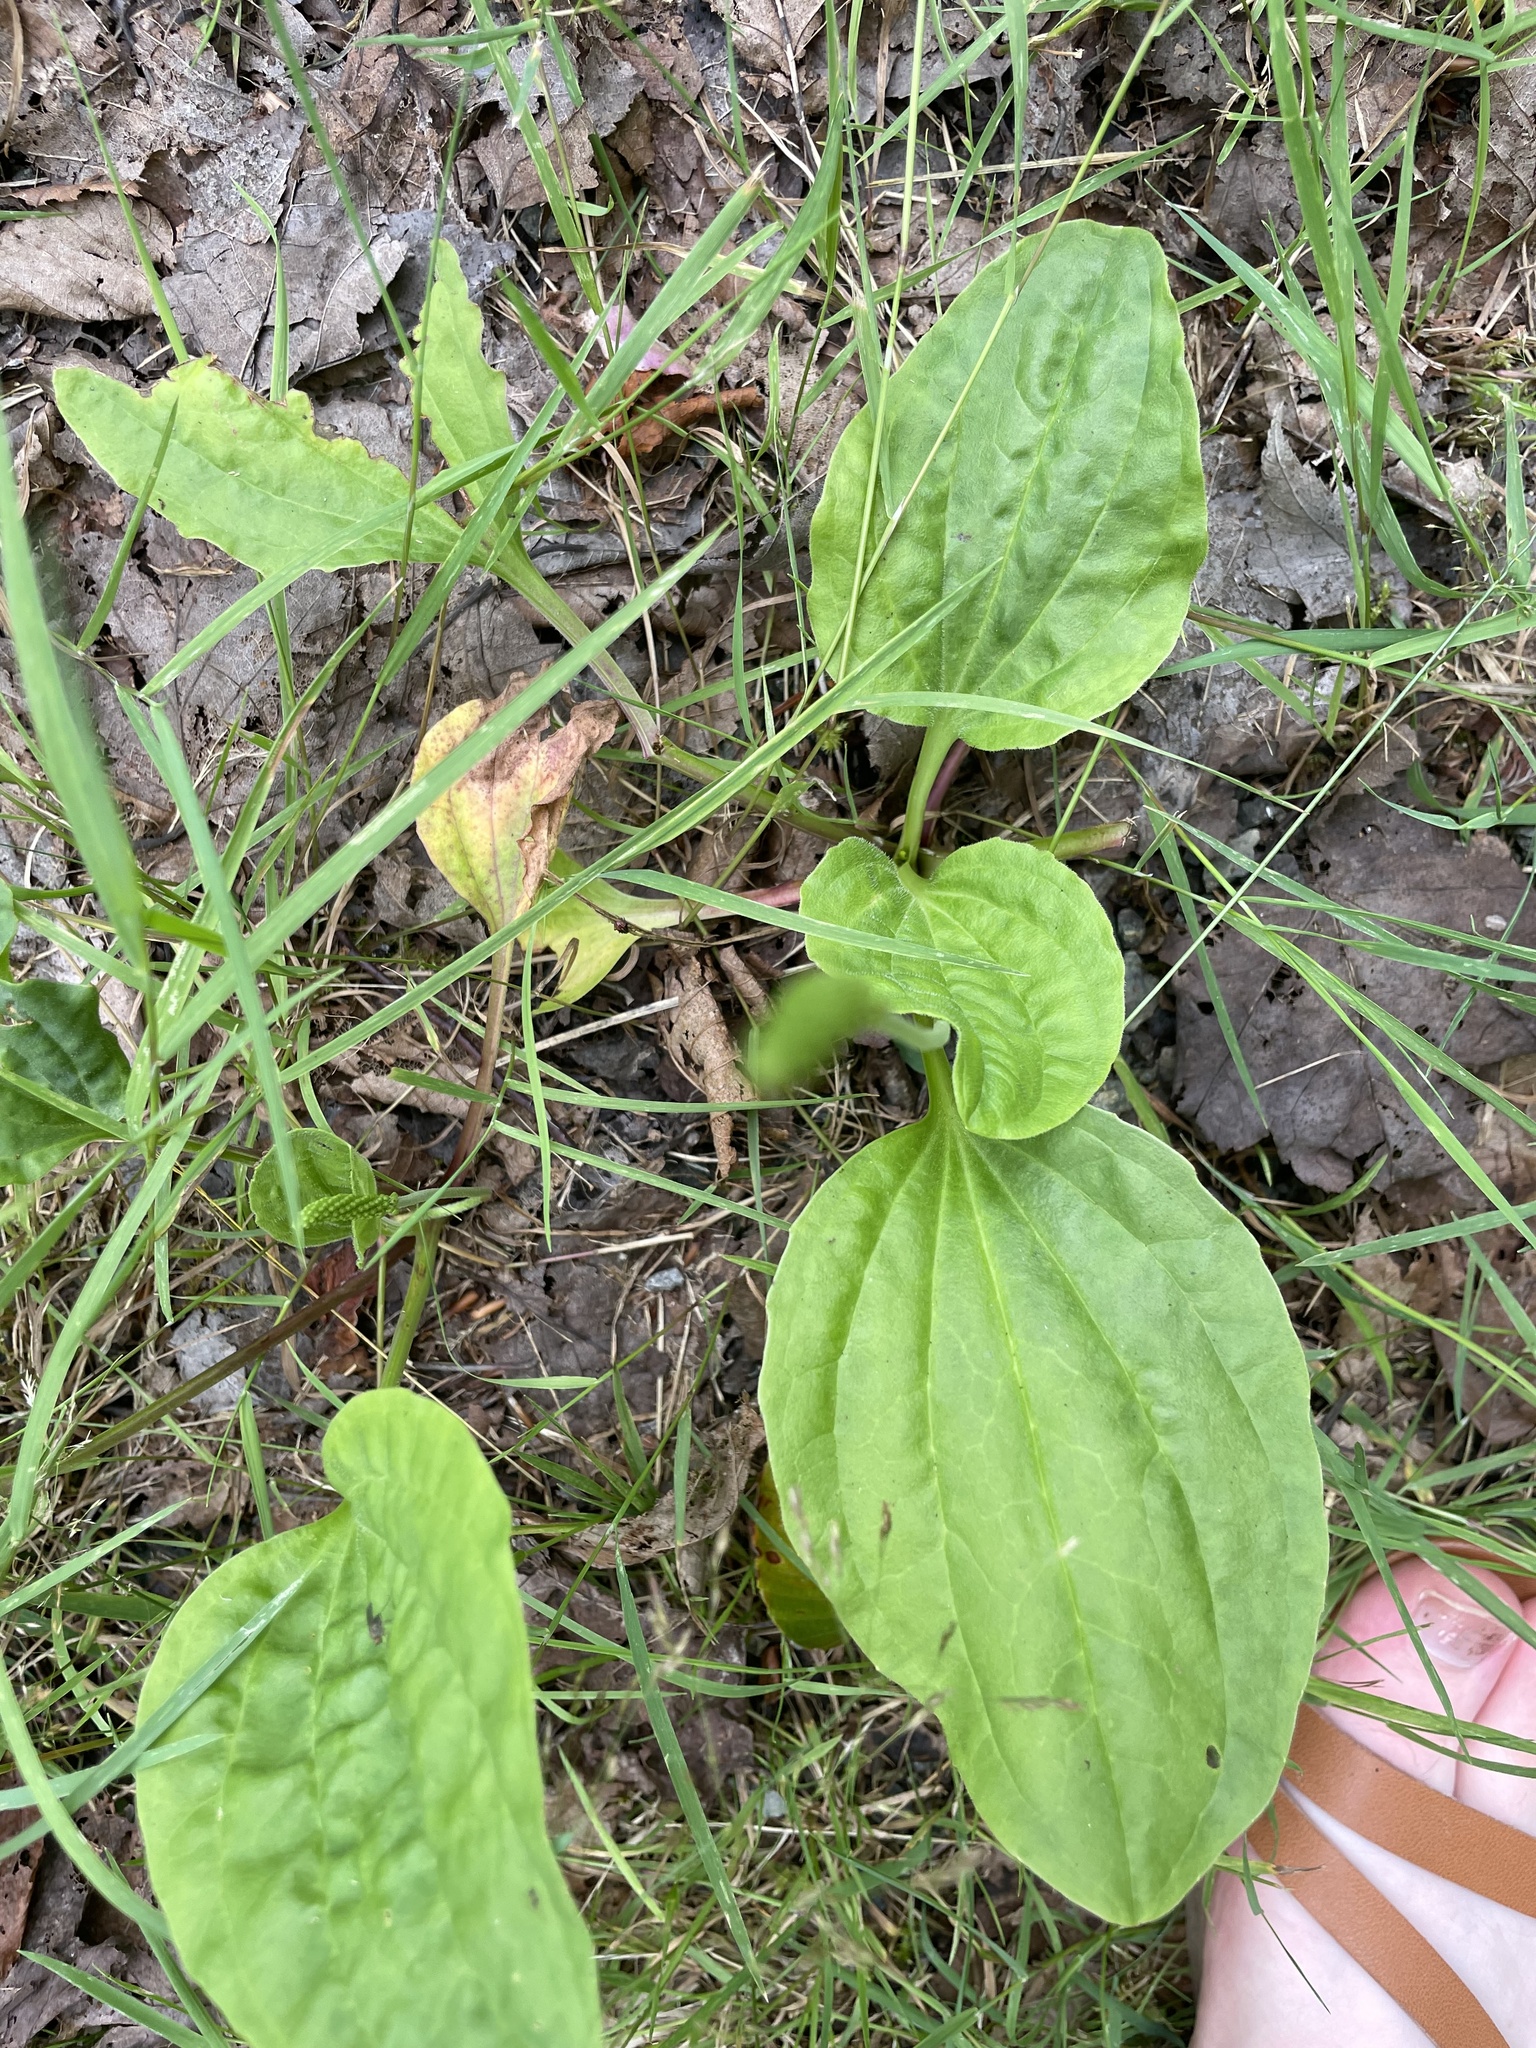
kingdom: Plantae
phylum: Tracheophyta
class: Magnoliopsida
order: Lamiales
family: Plantaginaceae
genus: Plantago
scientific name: Plantago major
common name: Common plantain
